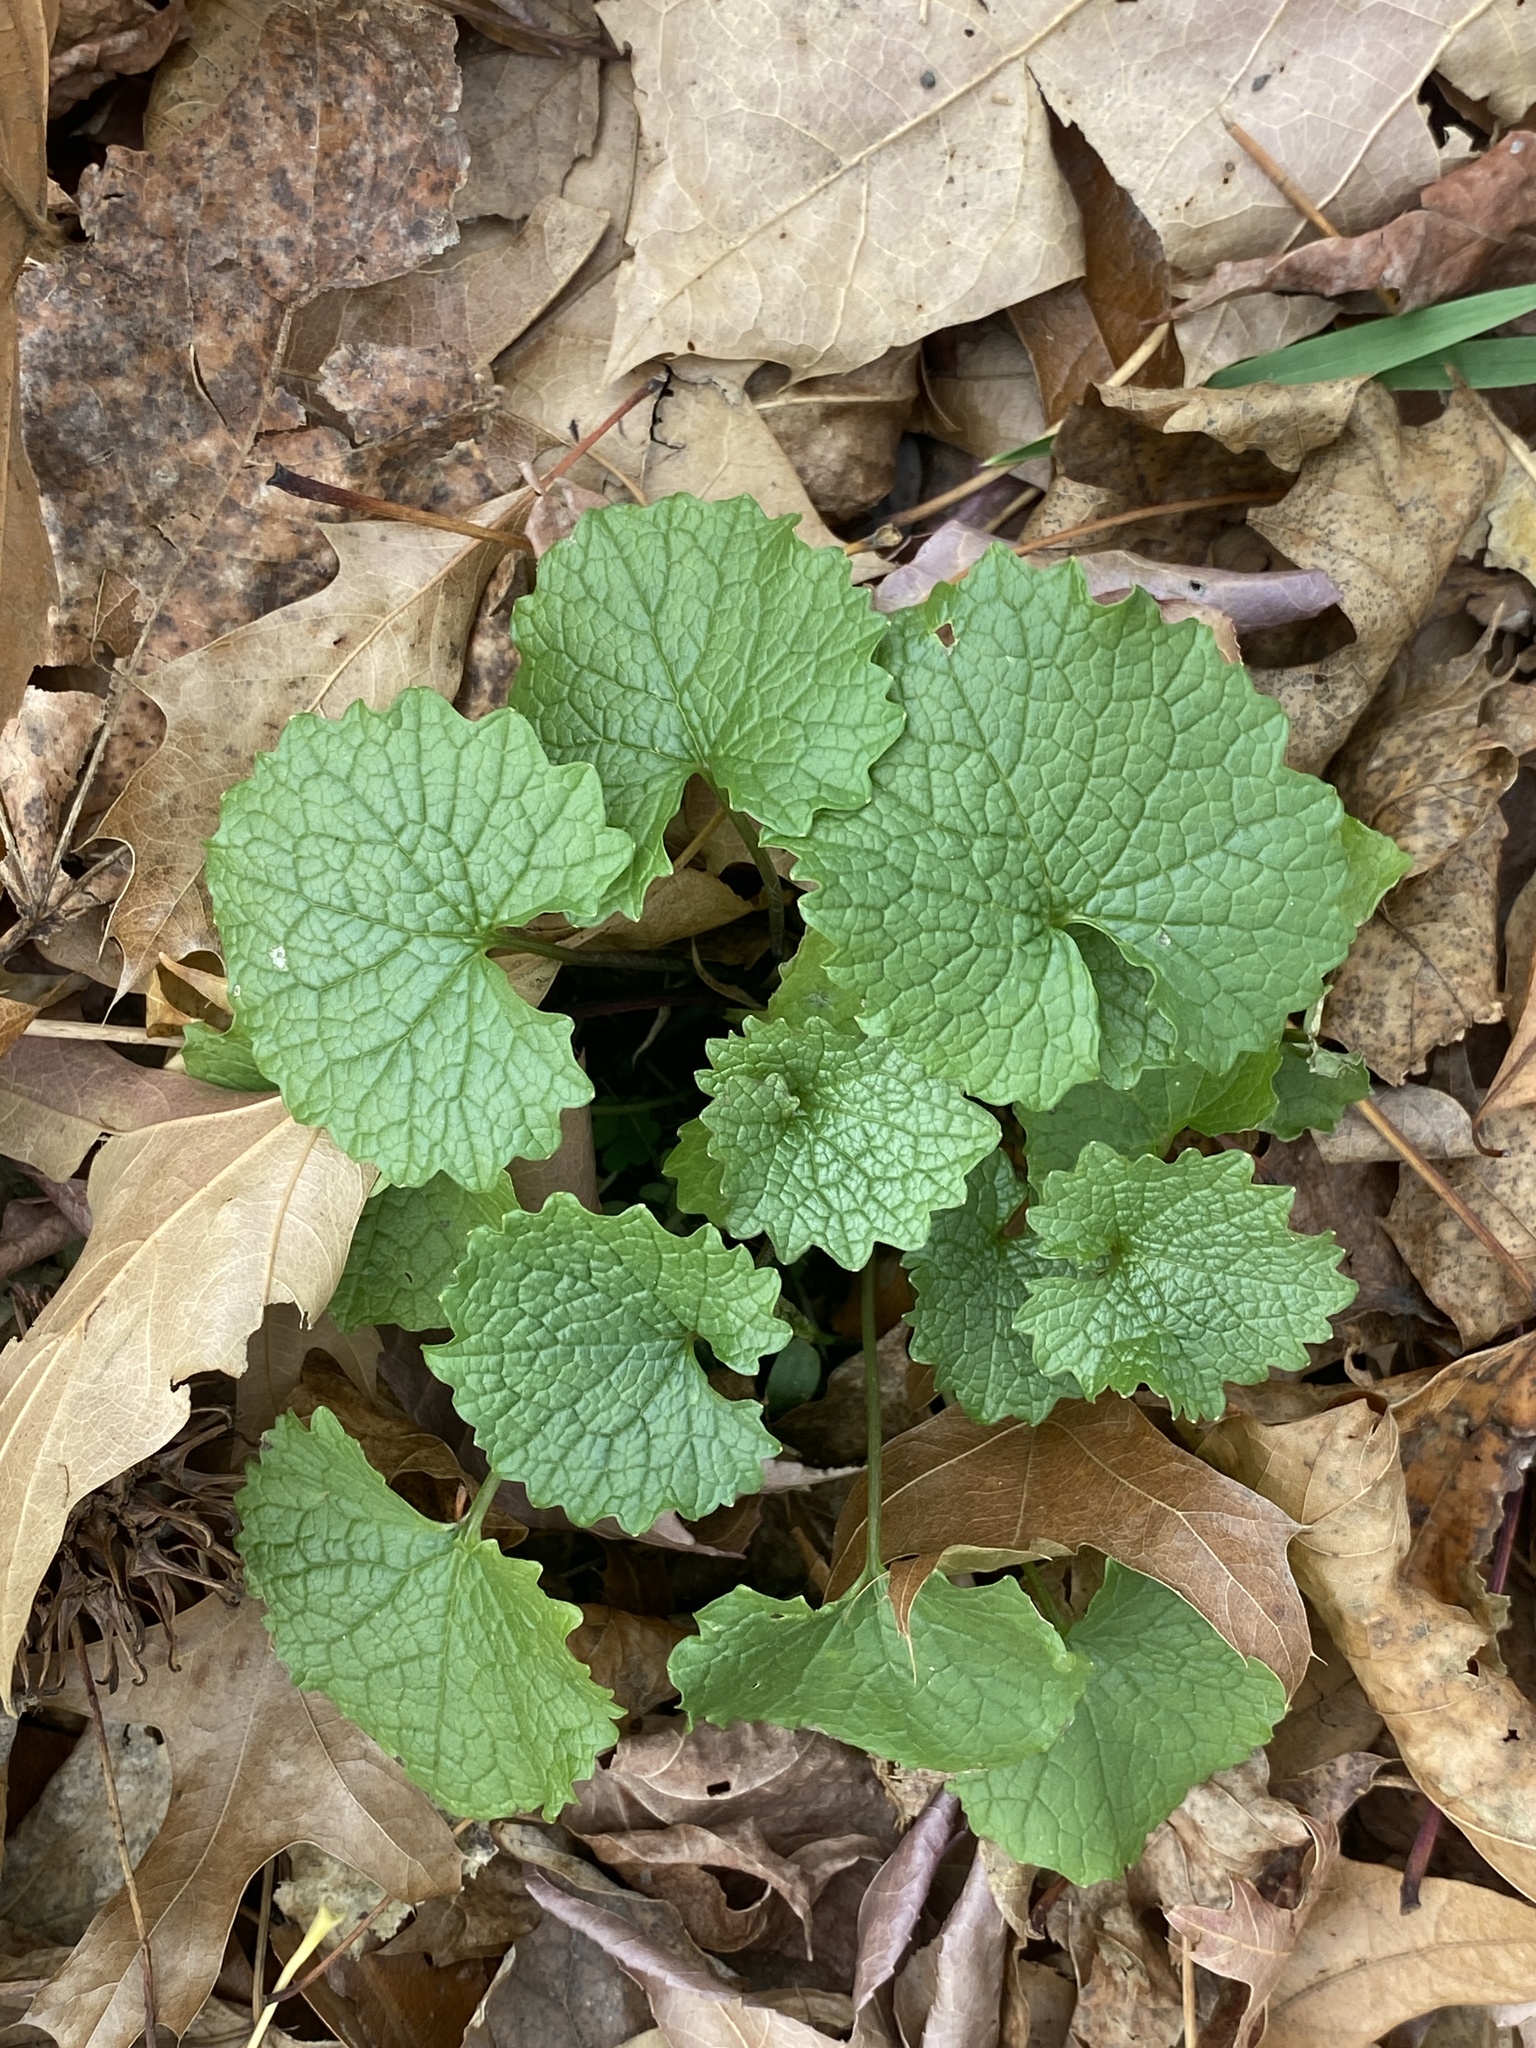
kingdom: Plantae
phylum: Tracheophyta
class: Magnoliopsida
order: Brassicales
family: Brassicaceae
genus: Alliaria
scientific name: Alliaria petiolata
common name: Garlic mustard
